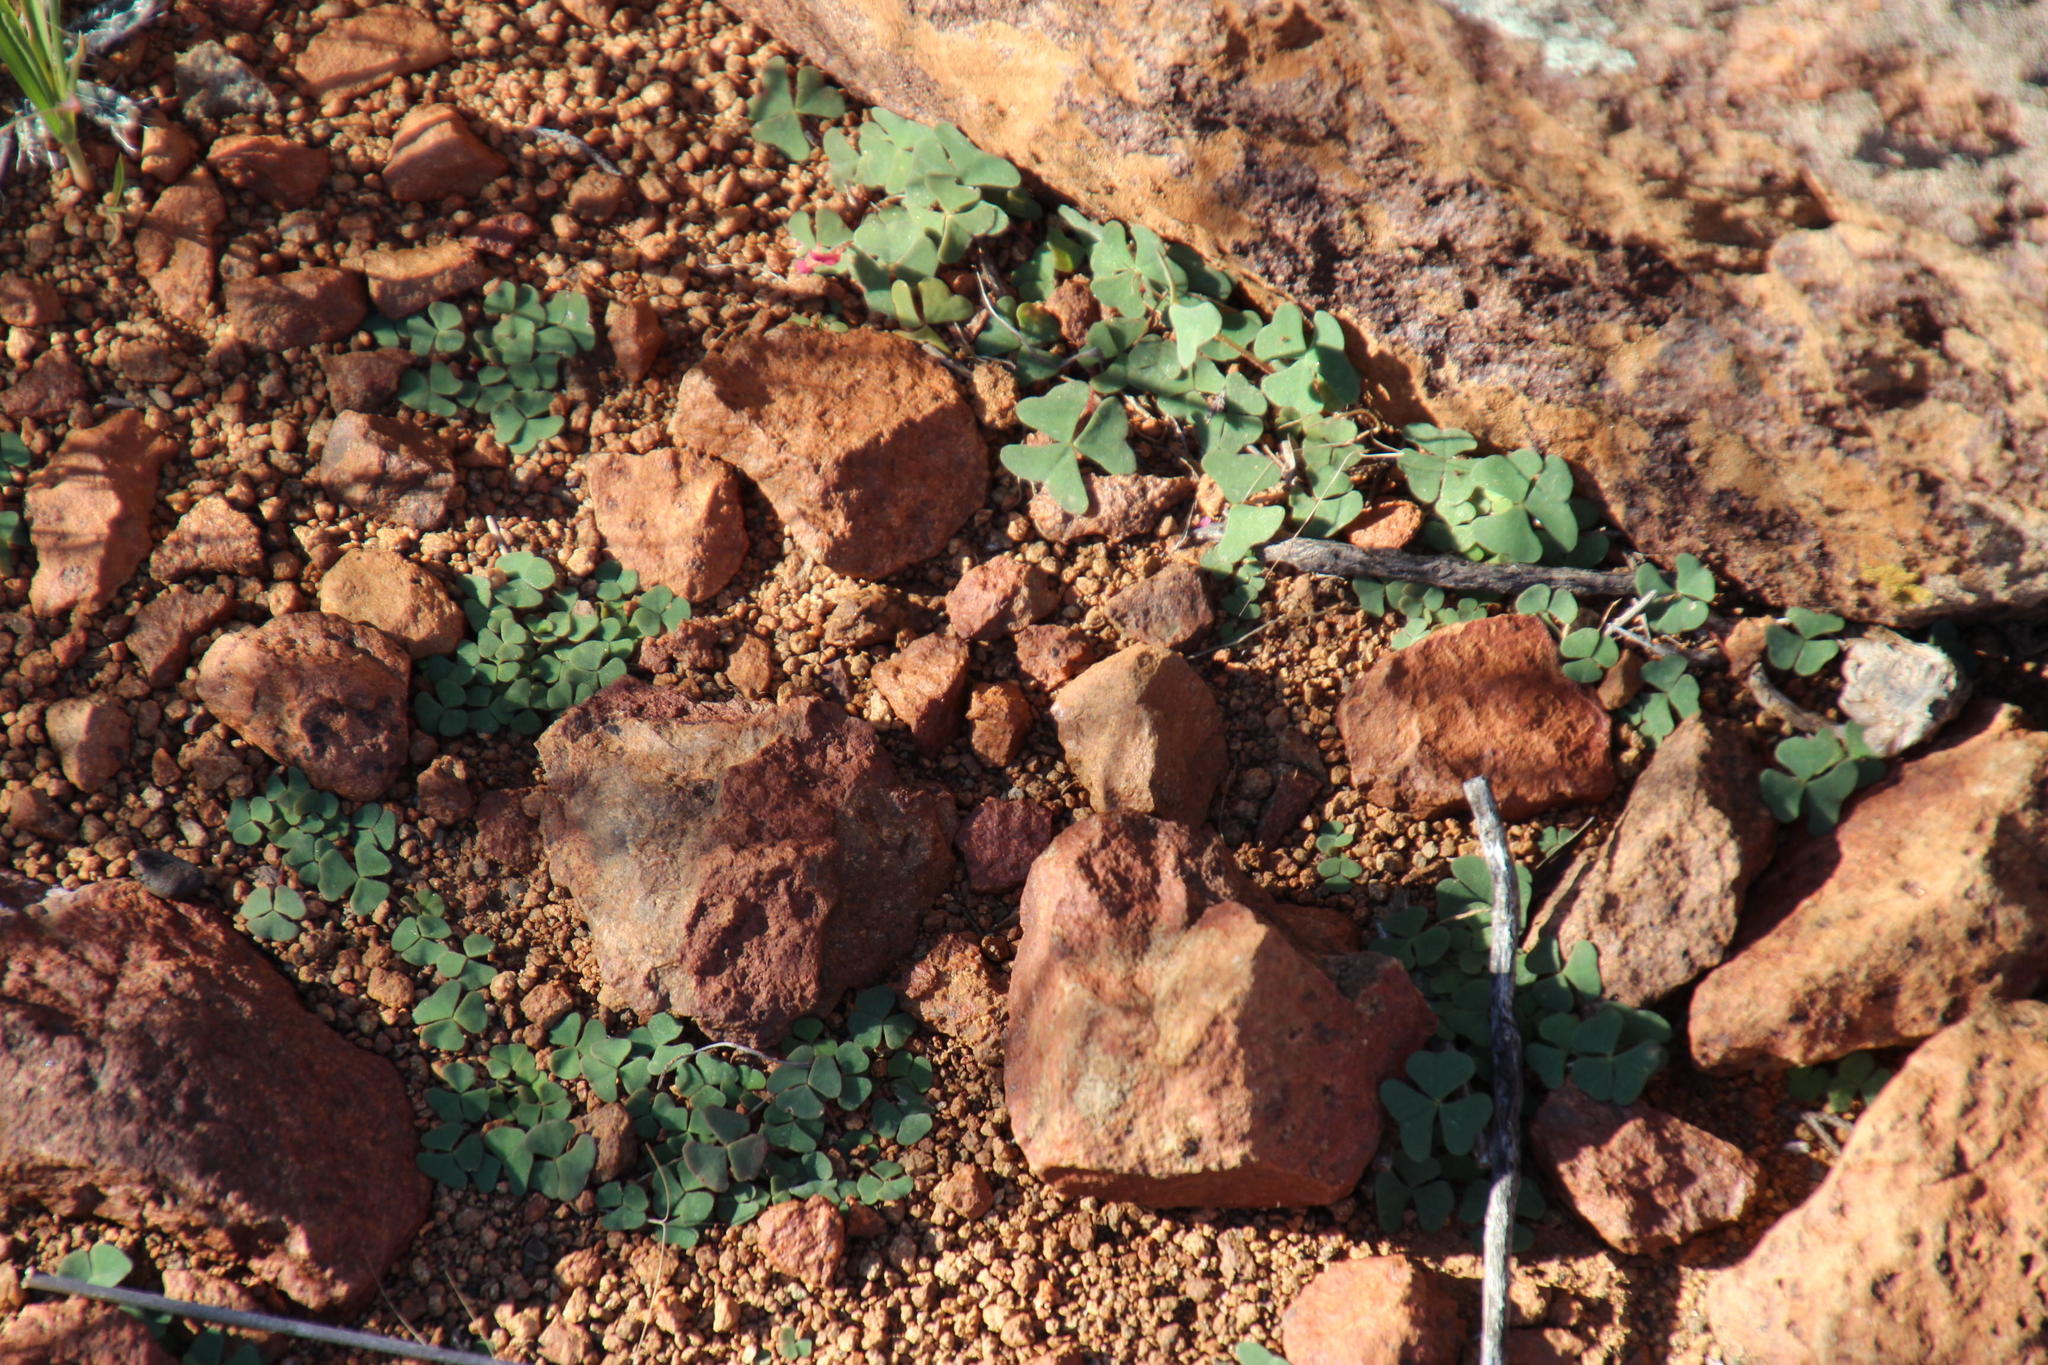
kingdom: Plantae
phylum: Tracheophyta
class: Magnoliopsida
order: Oxalidales
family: Oxalidaceae
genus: Oxalis
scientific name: Oxalis depressa
